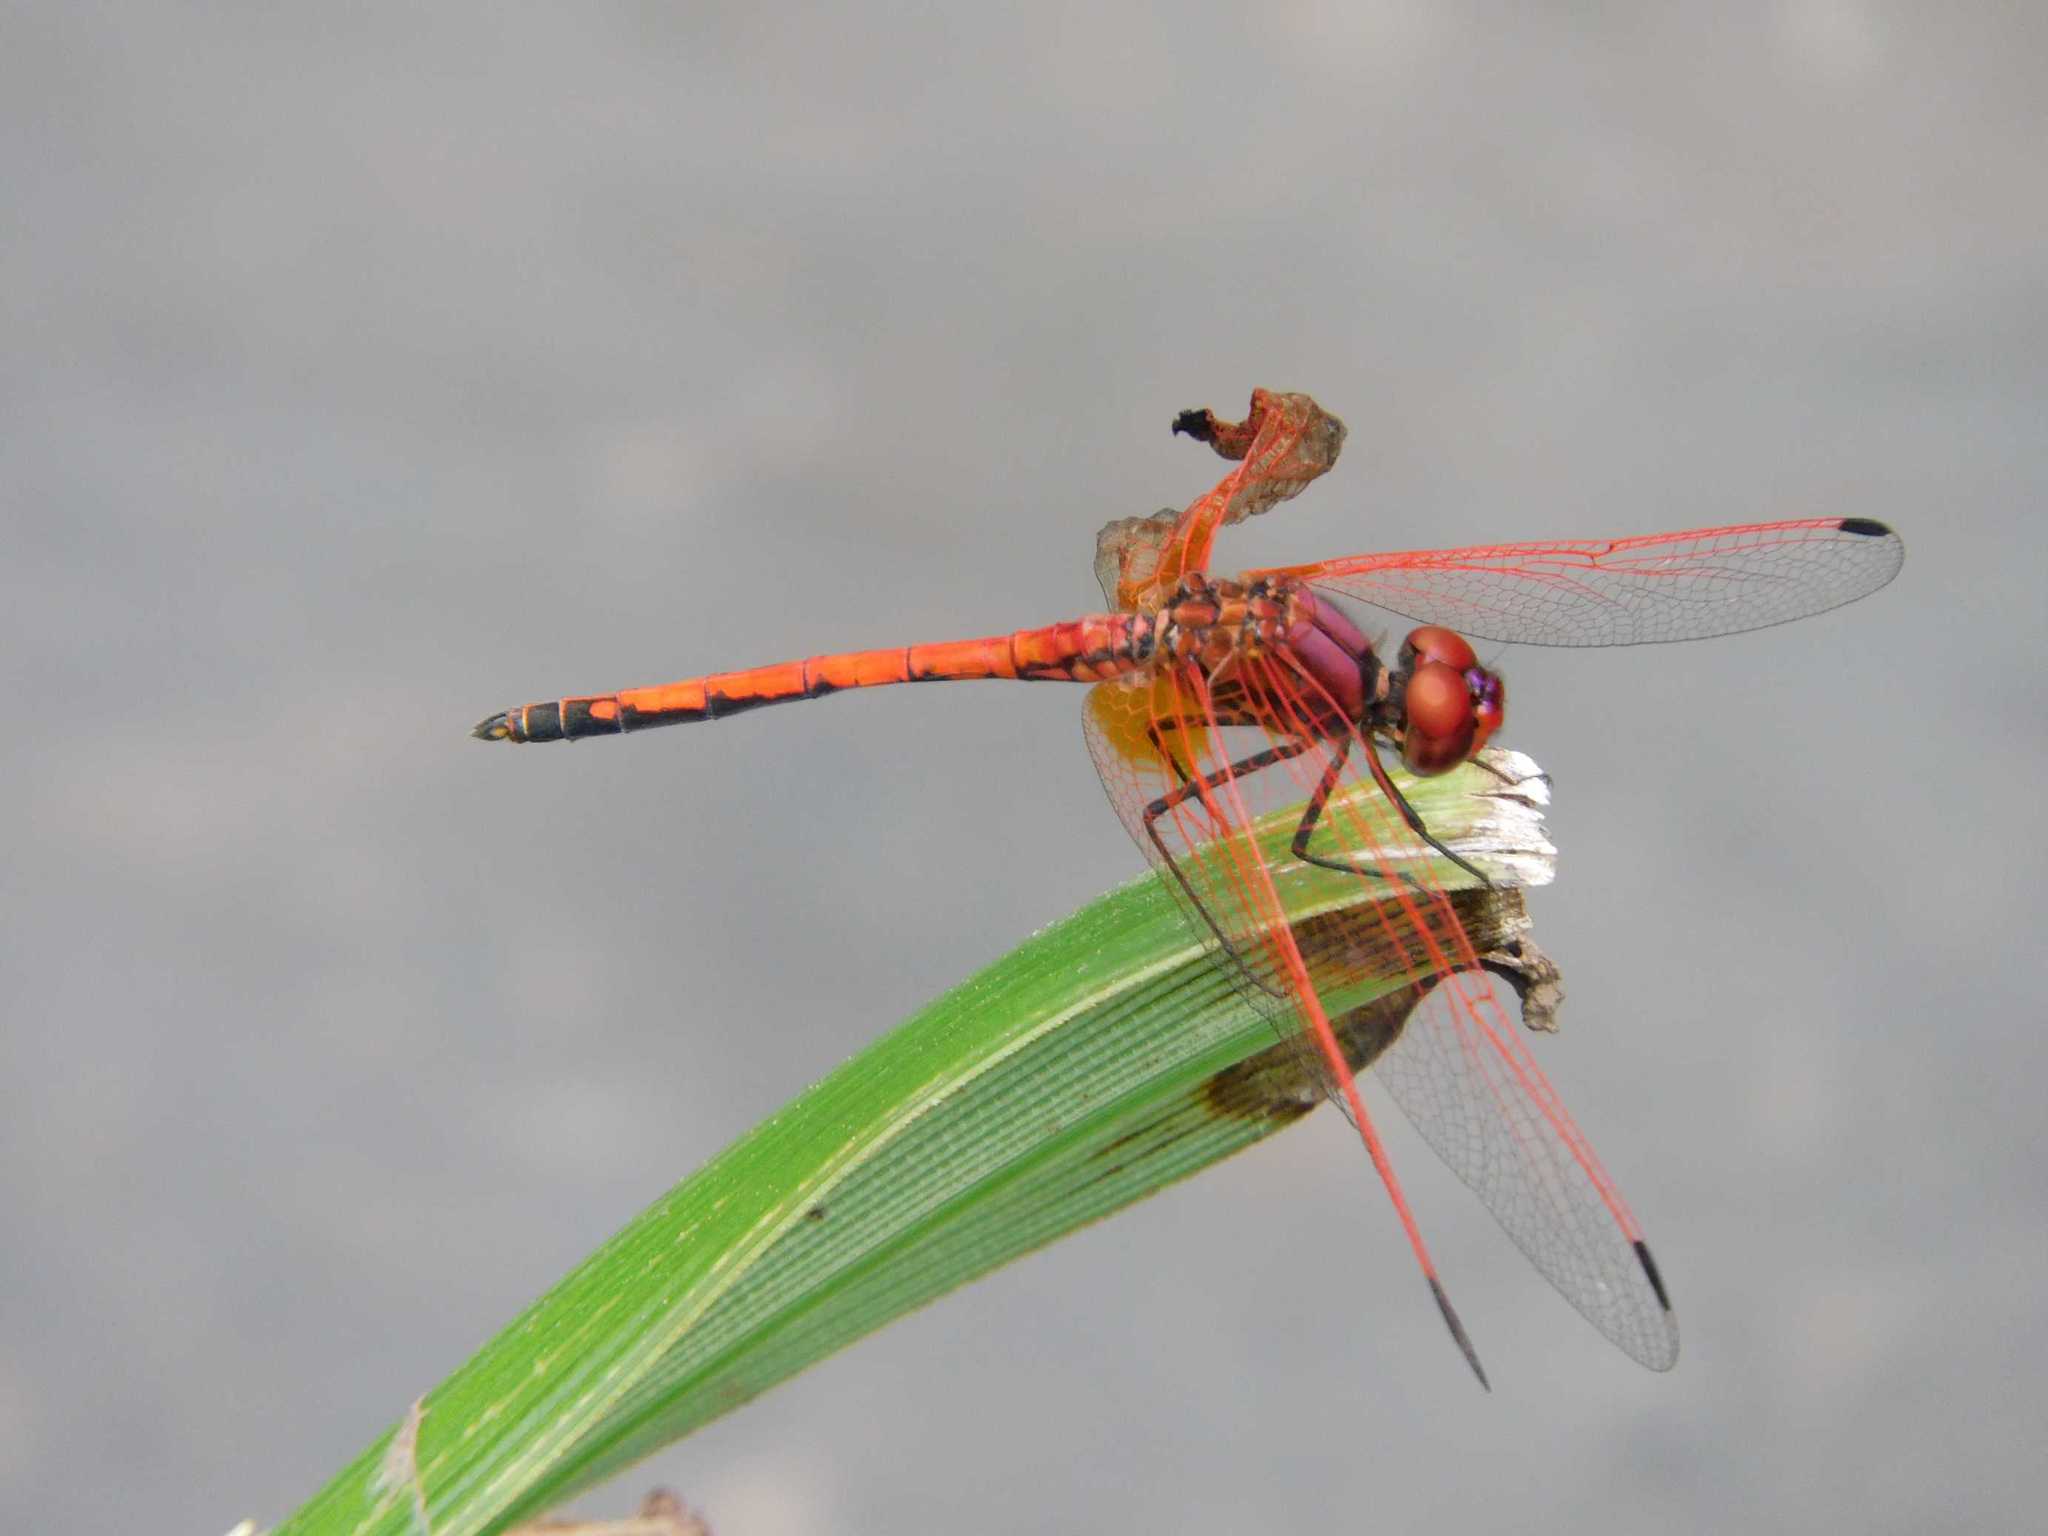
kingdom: Animalia
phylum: Arthropoda
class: Insecta
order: Odonata
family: Libellulidae
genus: Trithemis
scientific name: Trithemis arteriosa
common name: Red-veined dropwing
